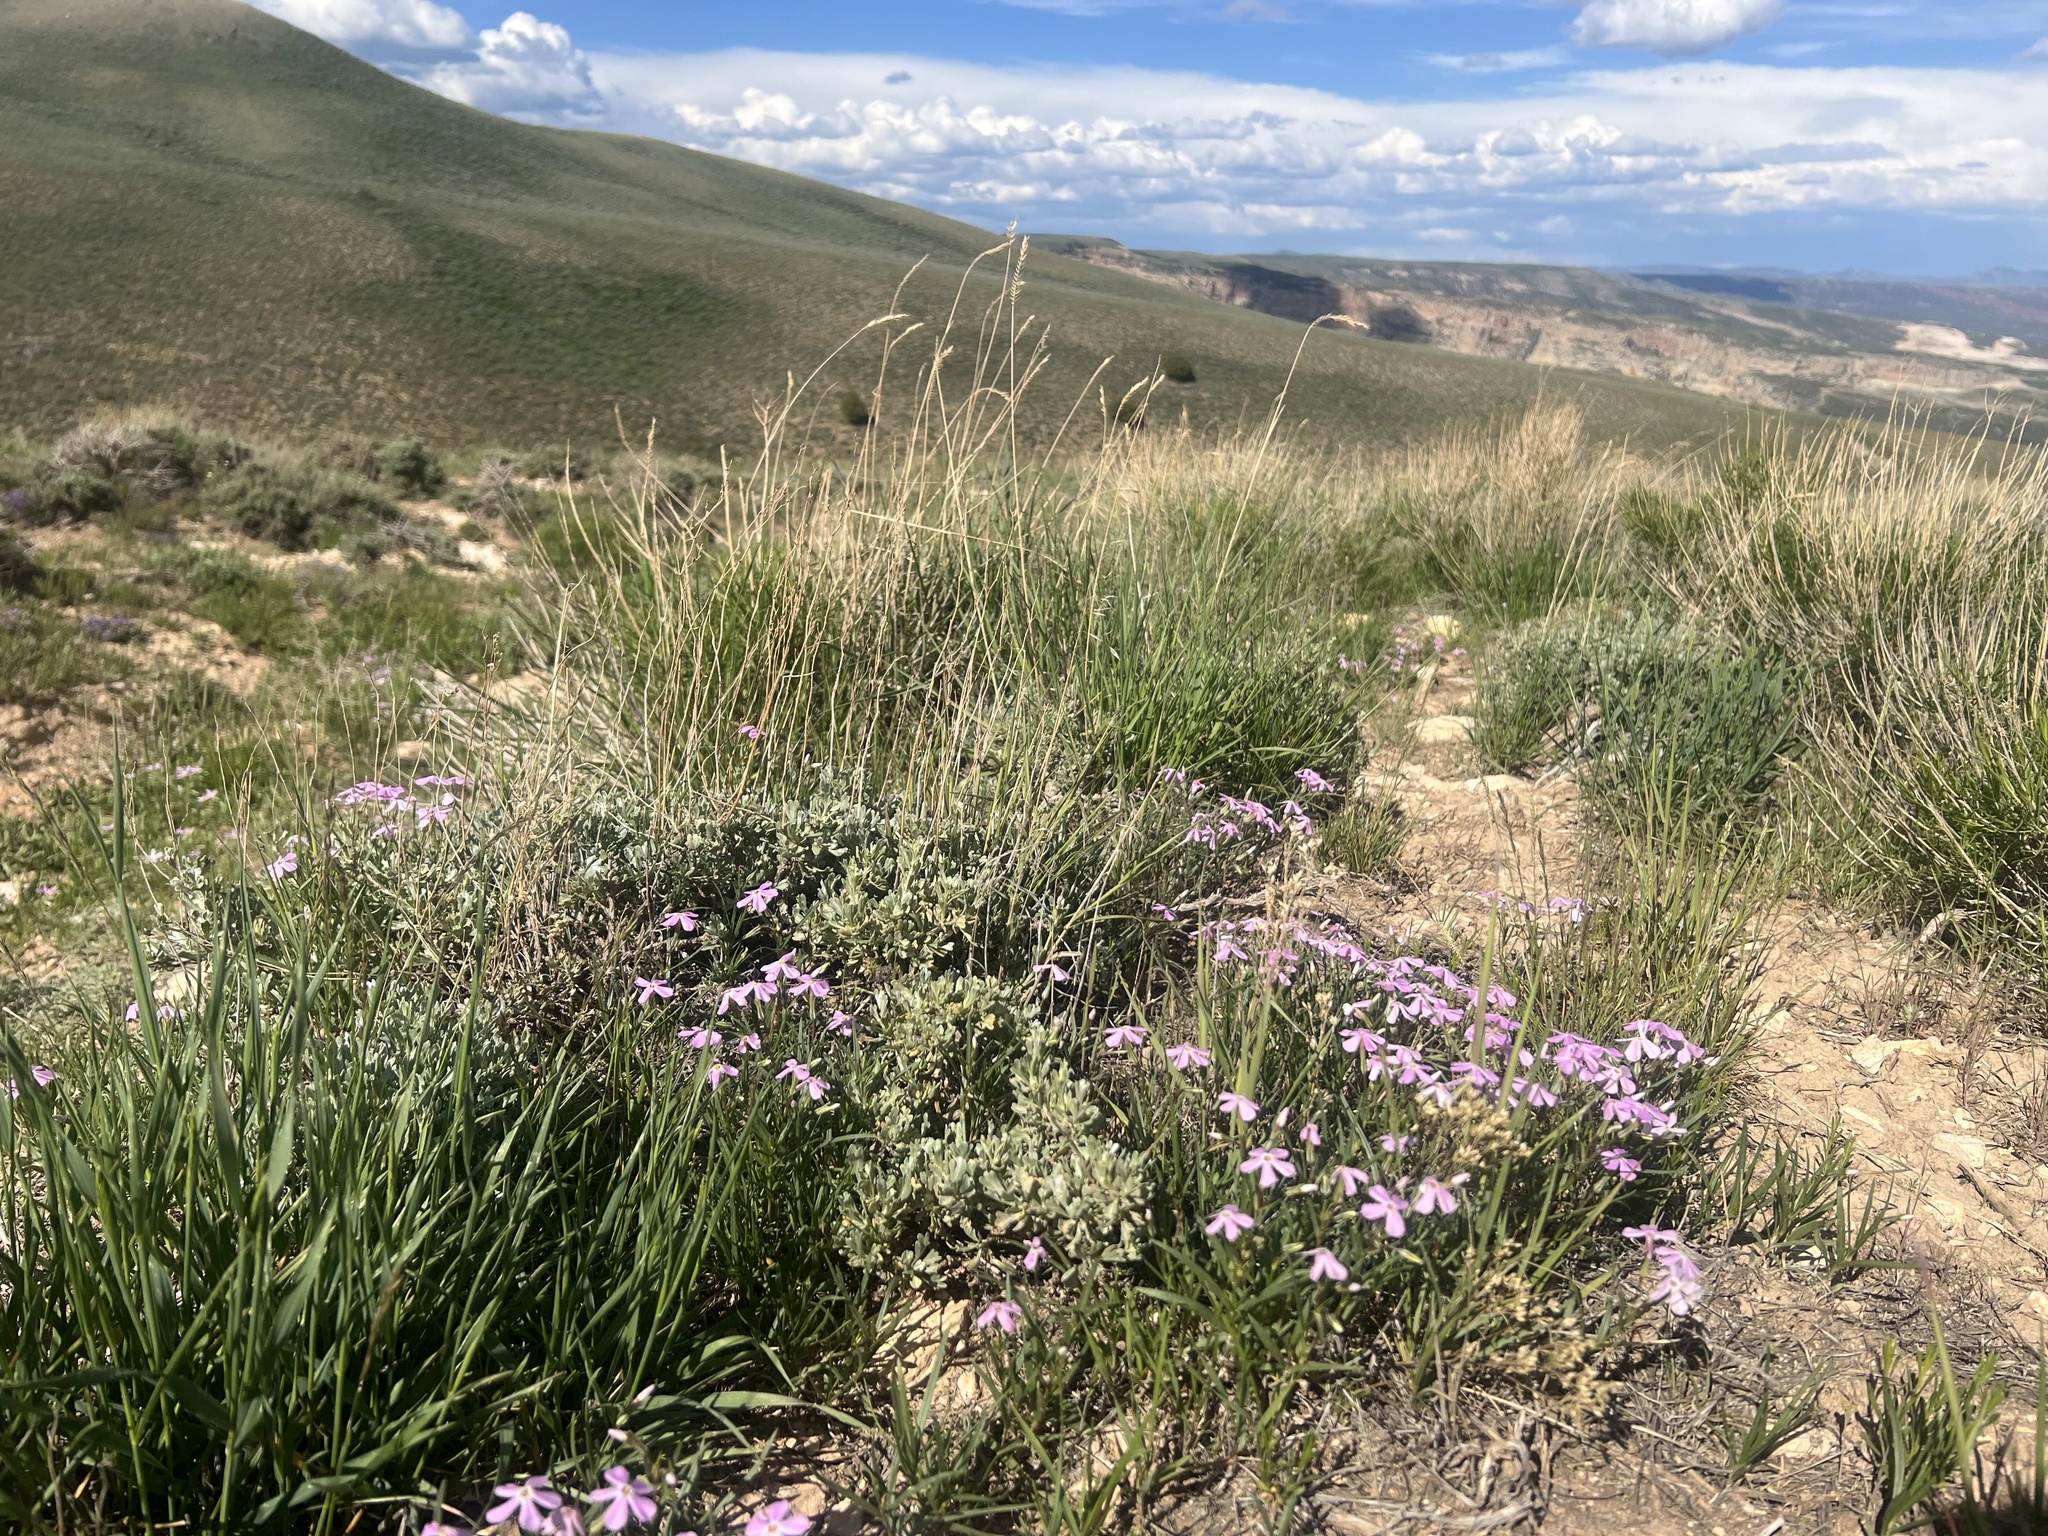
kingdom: Plantae
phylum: Tracheophyta
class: Magnoliopsida
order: Ericales
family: Polemoniaceae
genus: Phlox
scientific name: Phlox longifolia
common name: Longleaf phlox
